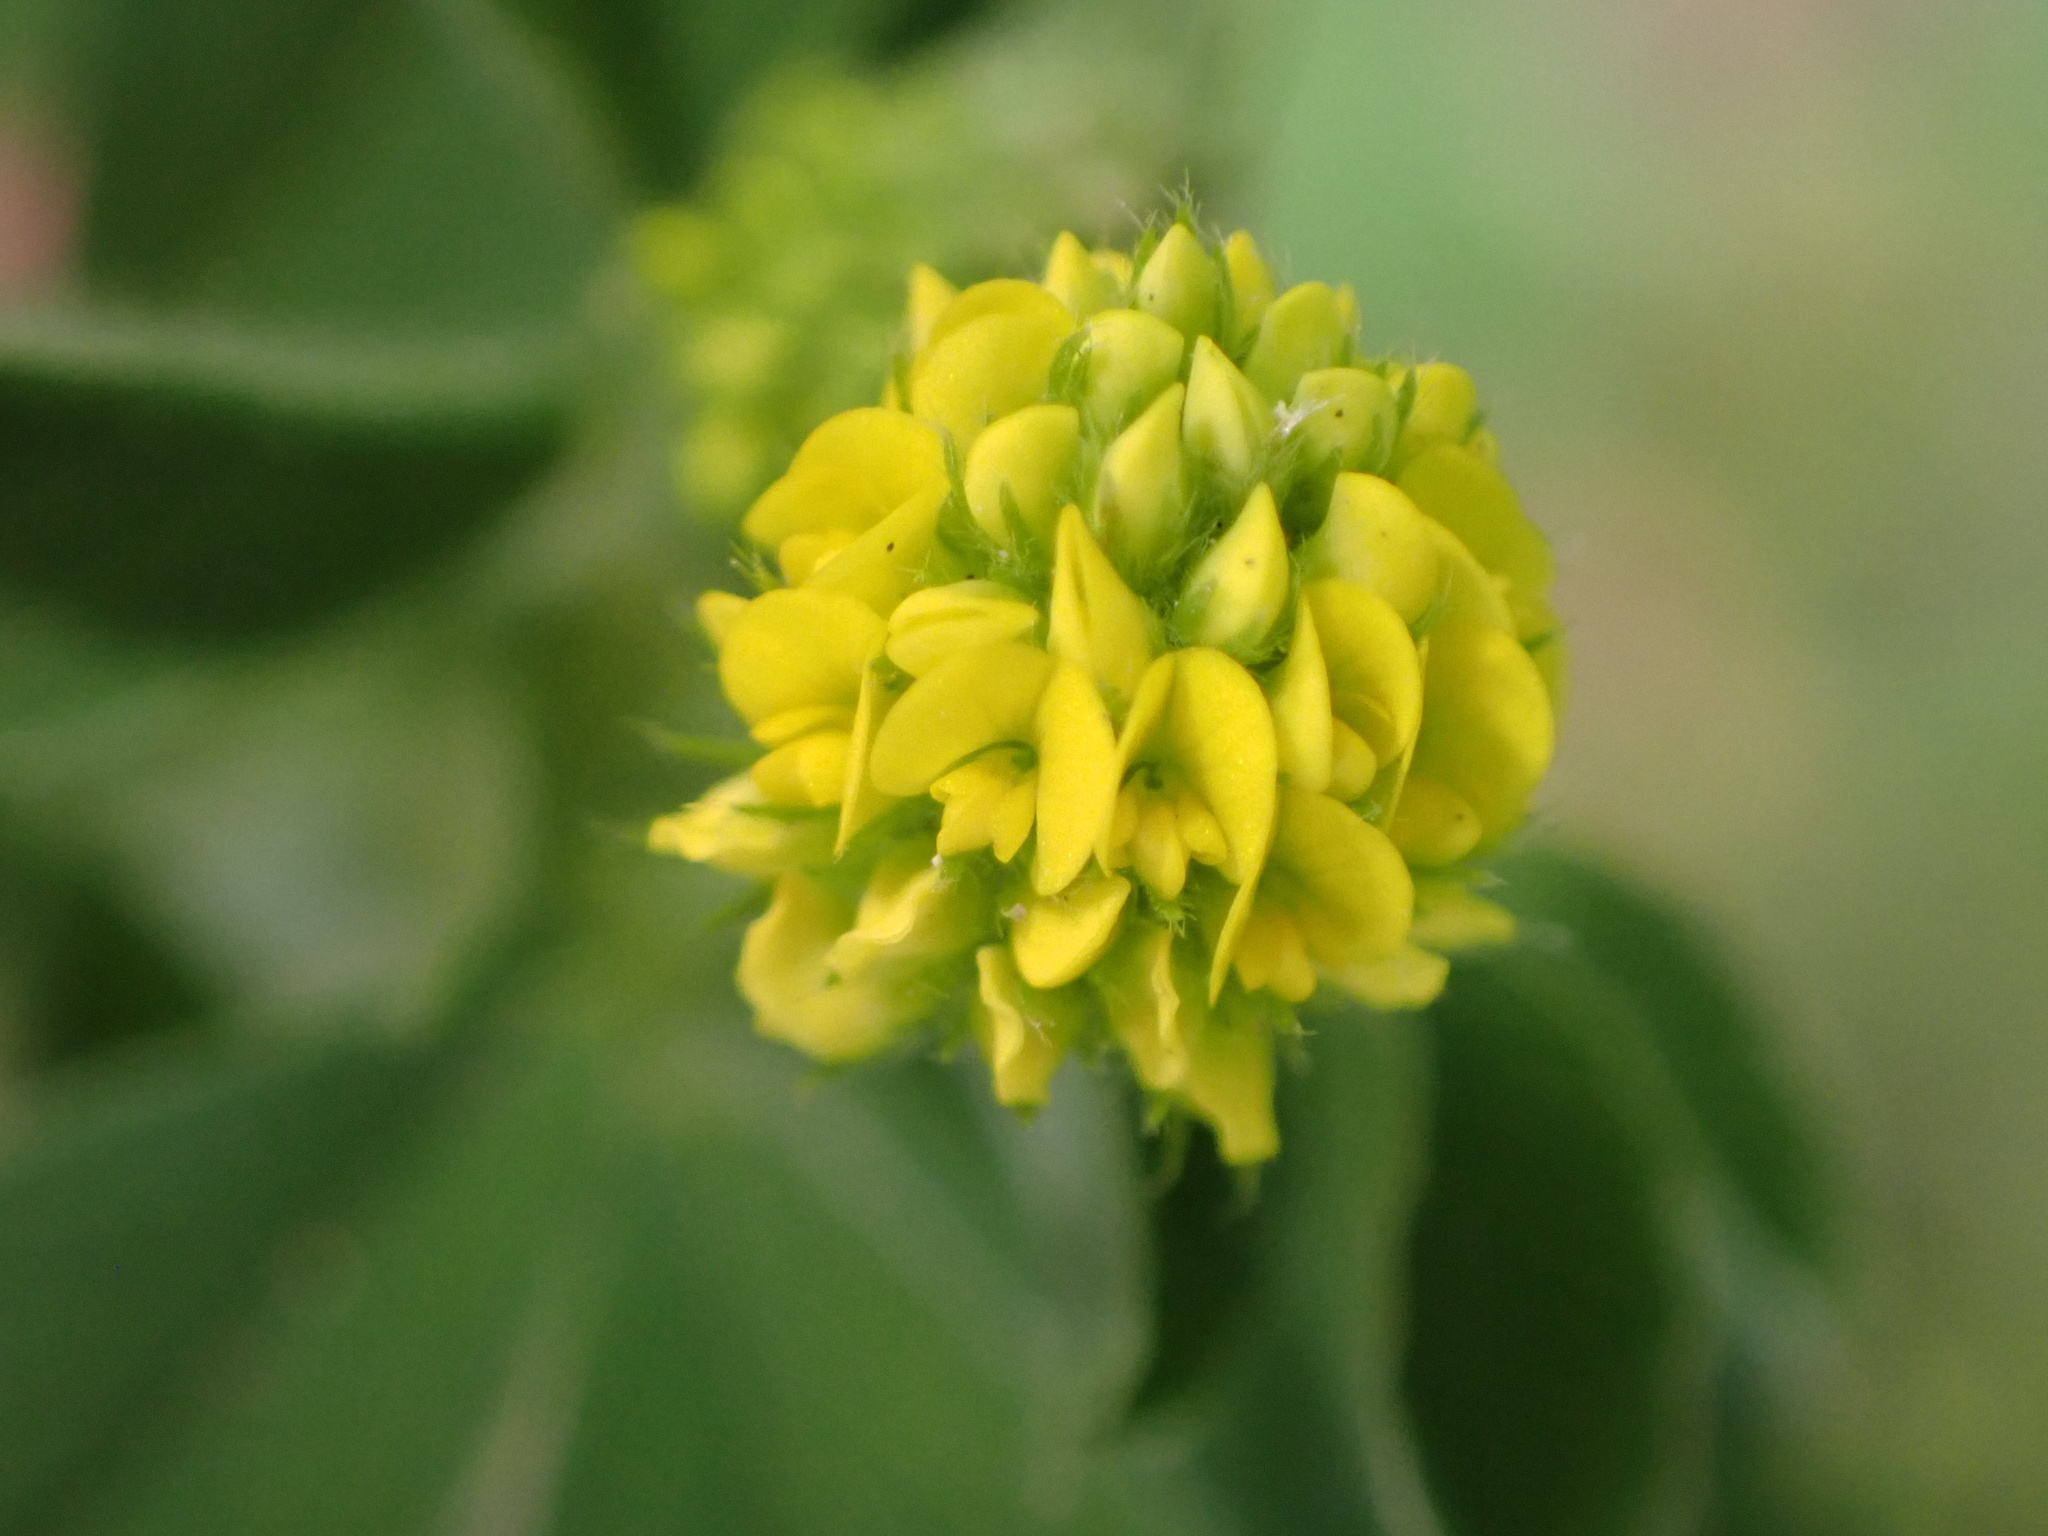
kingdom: Plantae
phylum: Tracheophyta
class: Magnoliopsida
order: Fabales
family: Fabaceae
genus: Medicago
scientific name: Medicago lupulina
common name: Black medick
